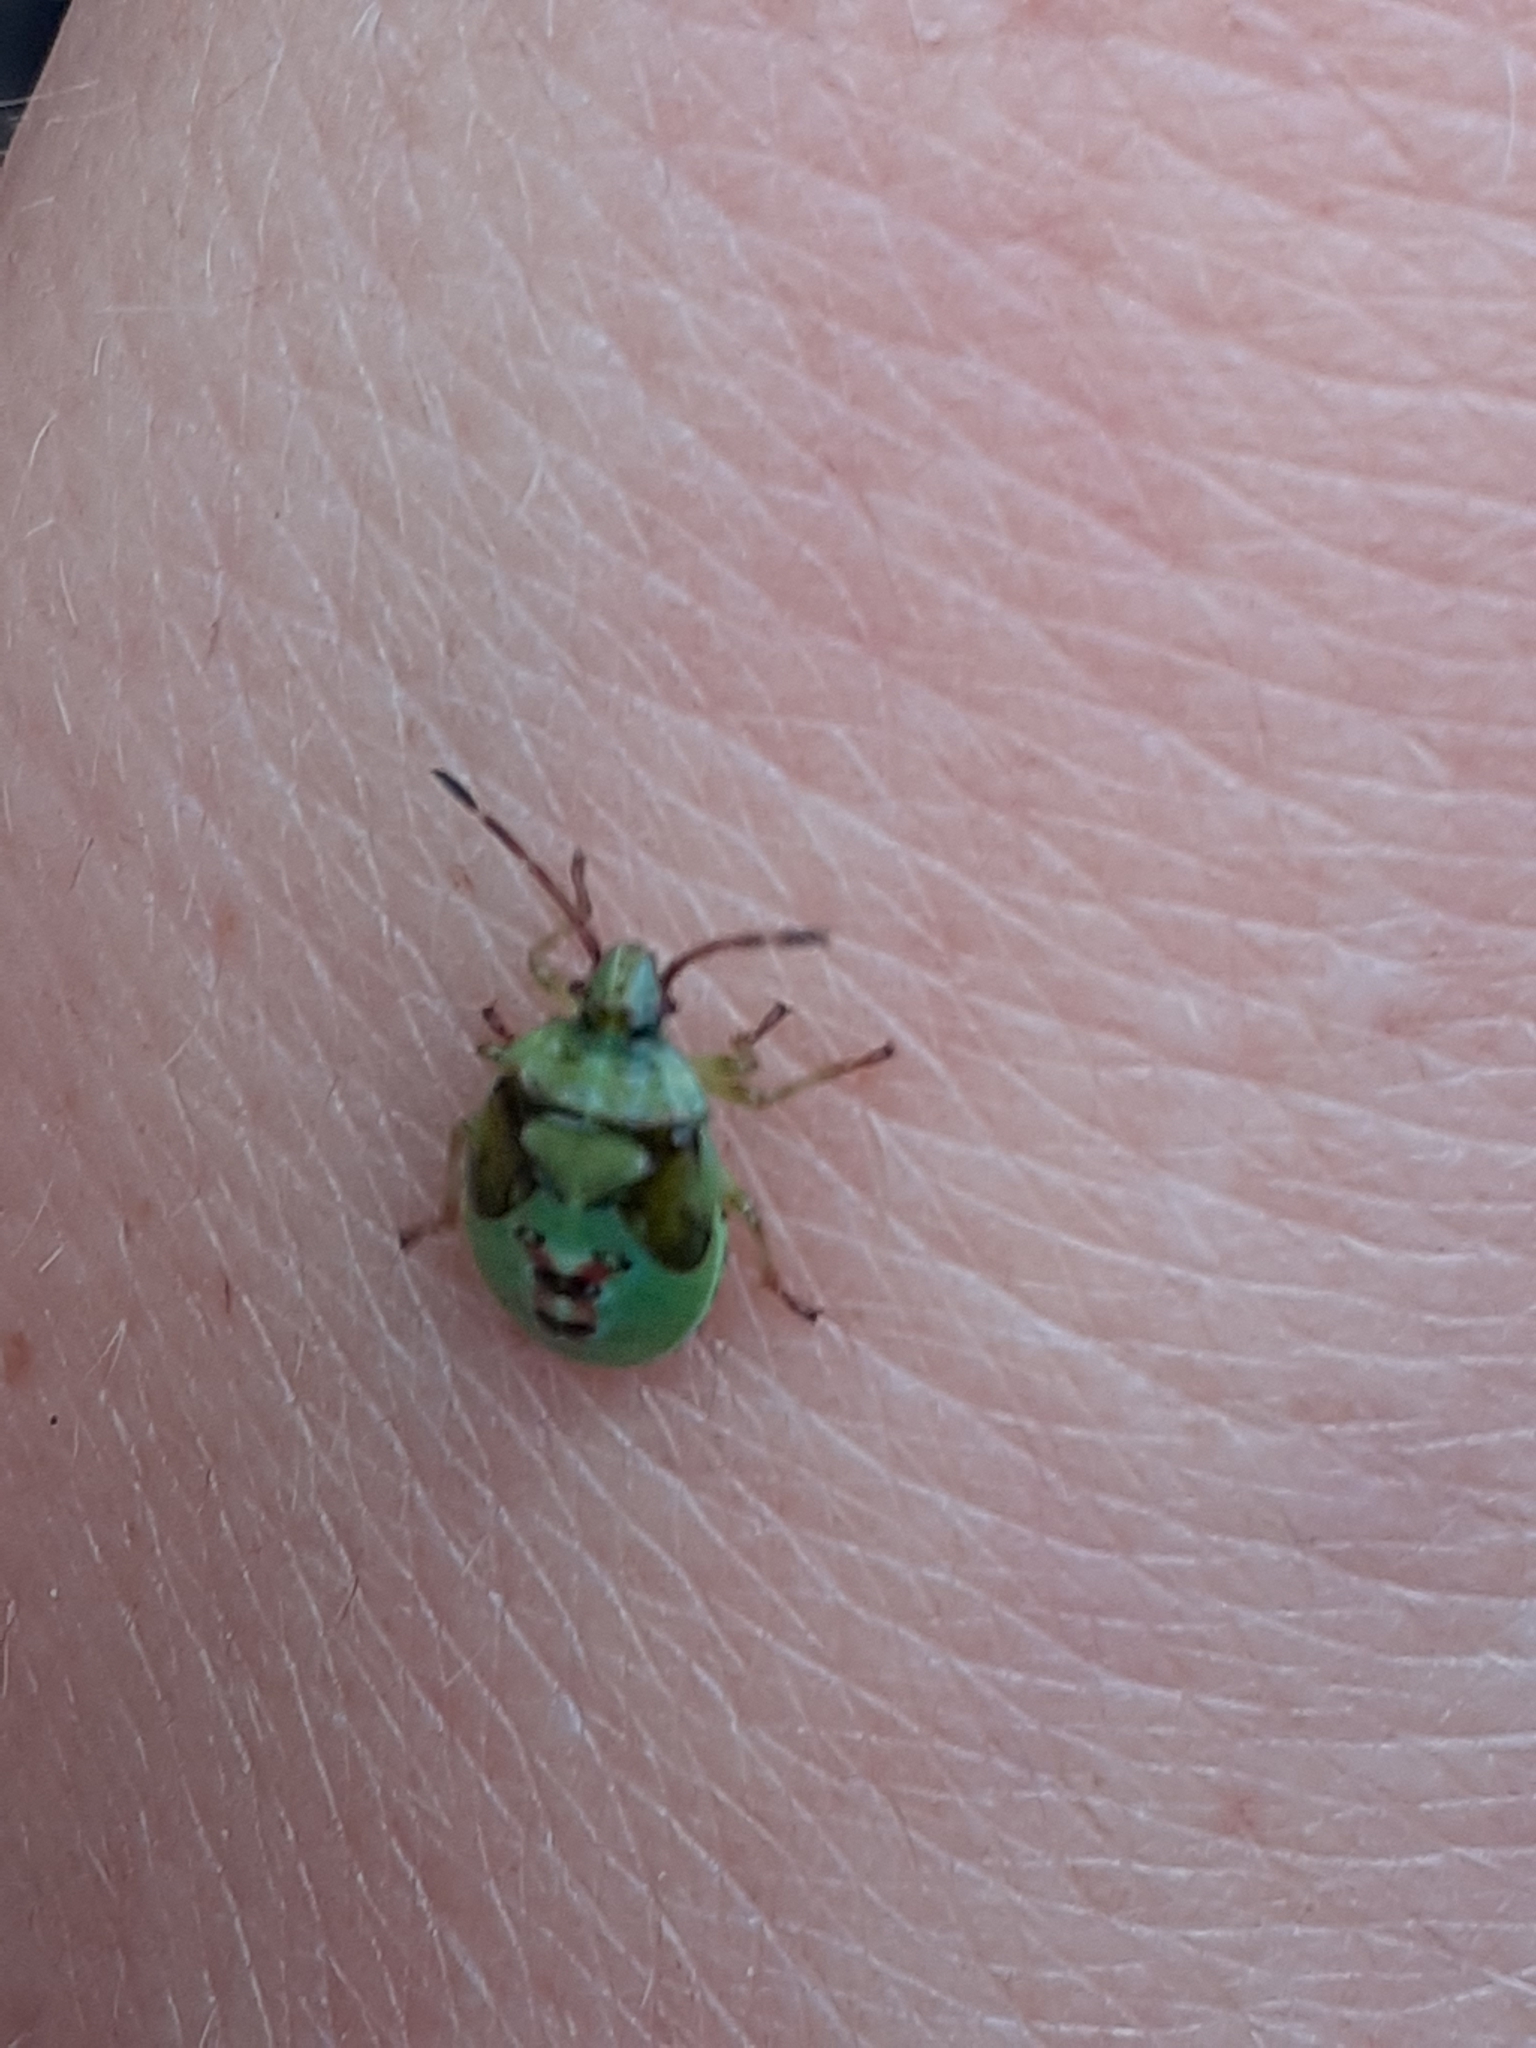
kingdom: Animalia
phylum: Arthropoda
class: Insecta
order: Hemiptera
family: Acanthosomatidae
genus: Elasmostethus
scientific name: Elasmostethus interstinctus
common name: Birch shieldbug
